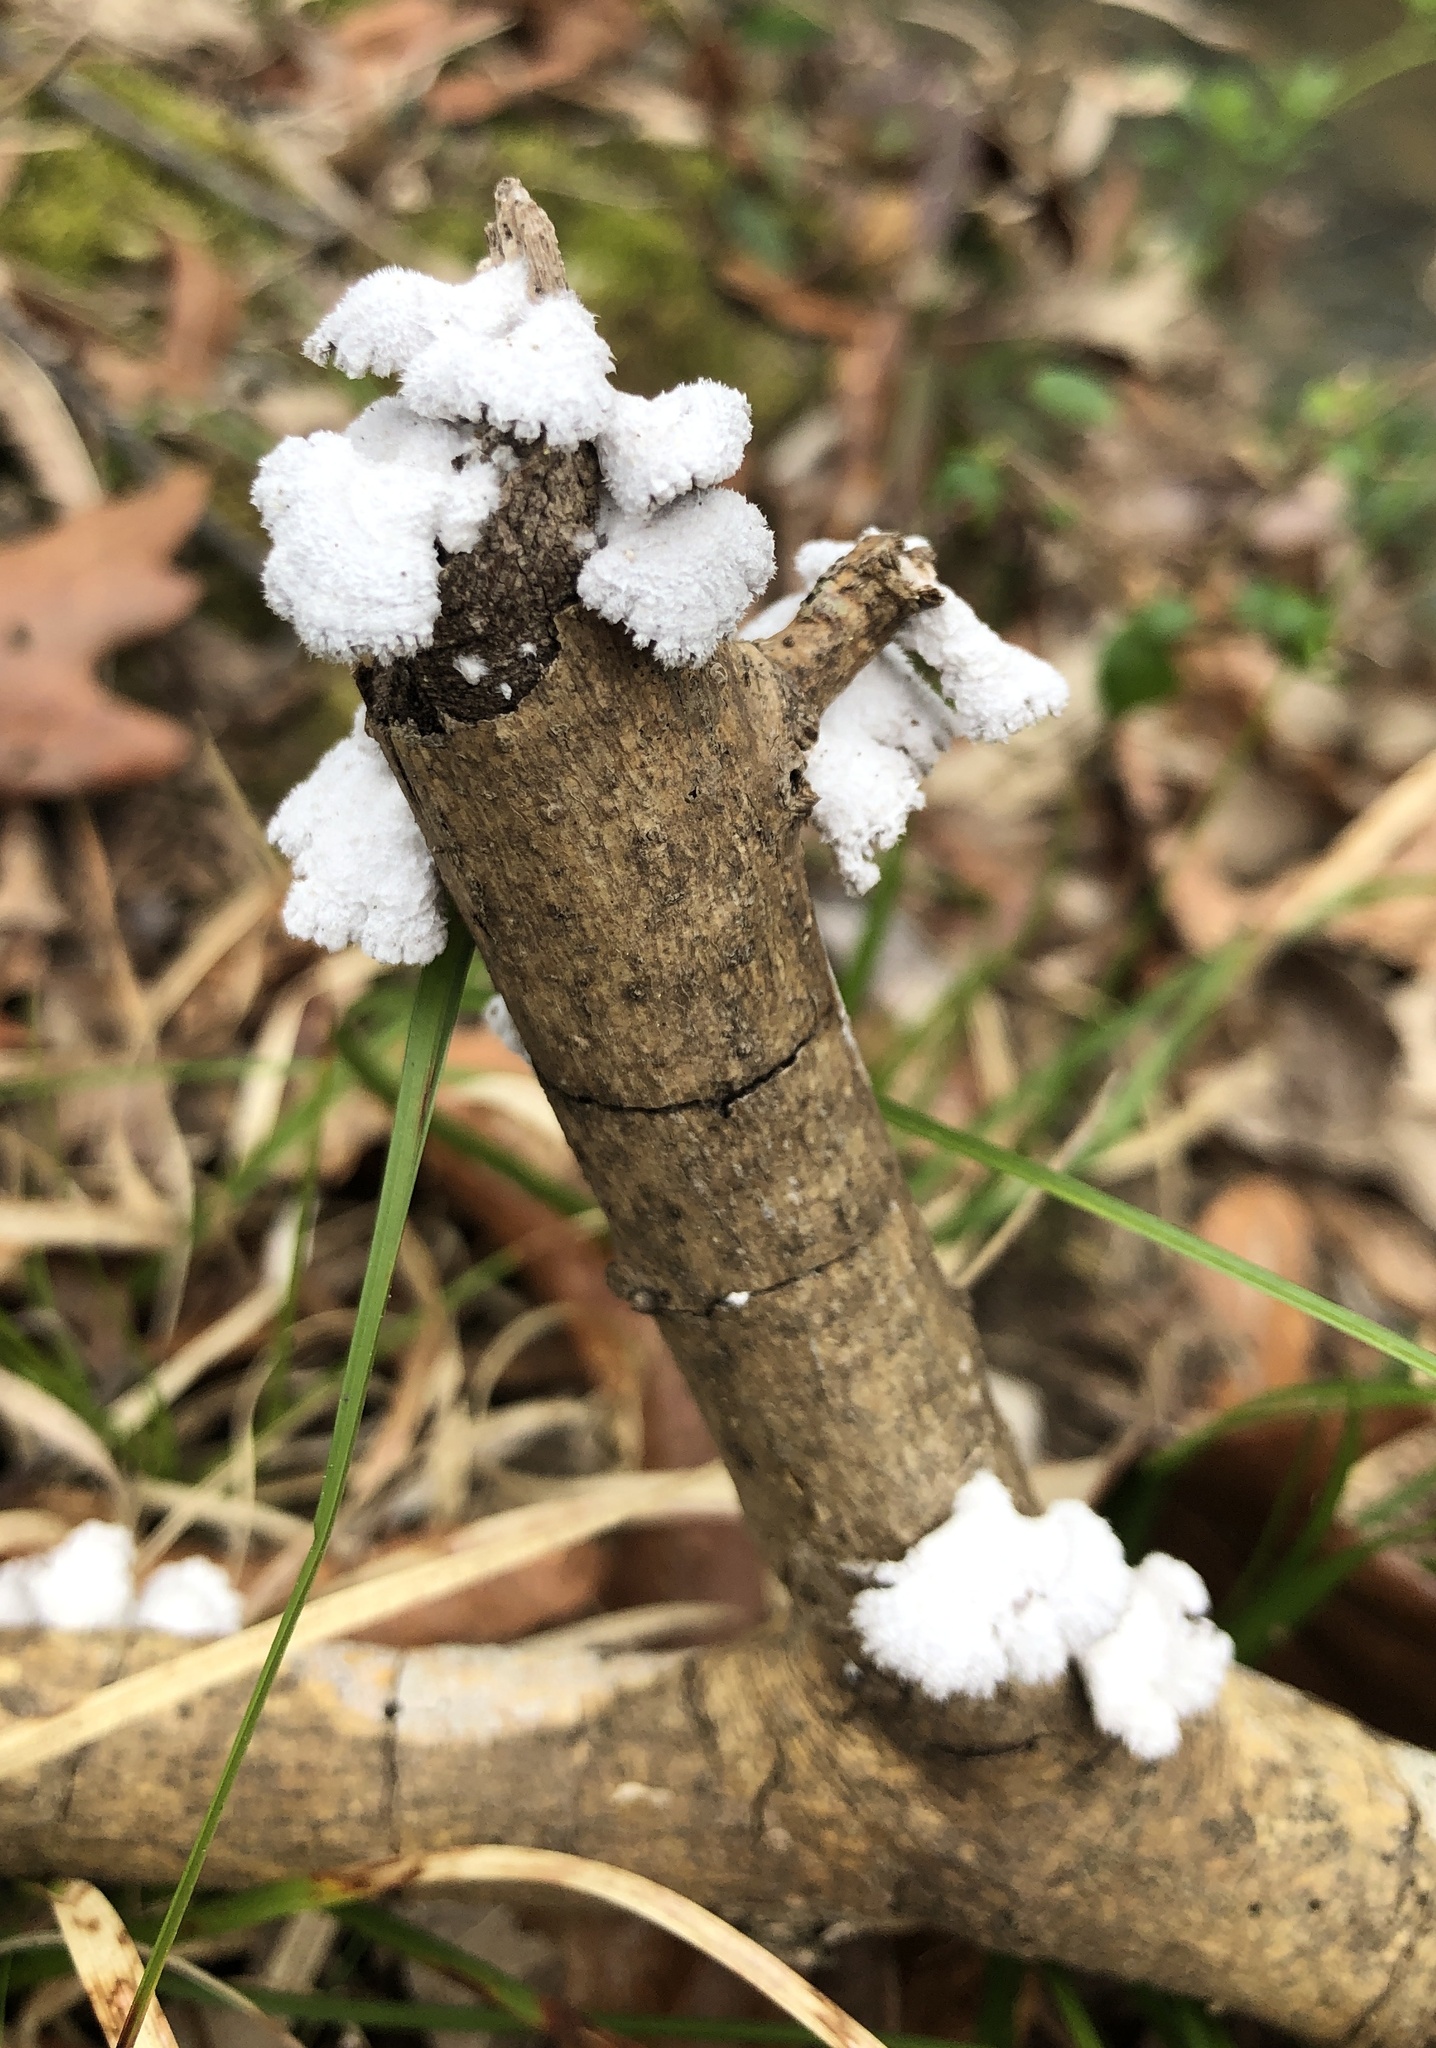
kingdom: Fungi
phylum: Basidiomycota
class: Agaricomycetes
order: Agaricales
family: Schizophyllaceae
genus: Schizophyllum
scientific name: Schizophyllum commune
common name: Common porecrust
